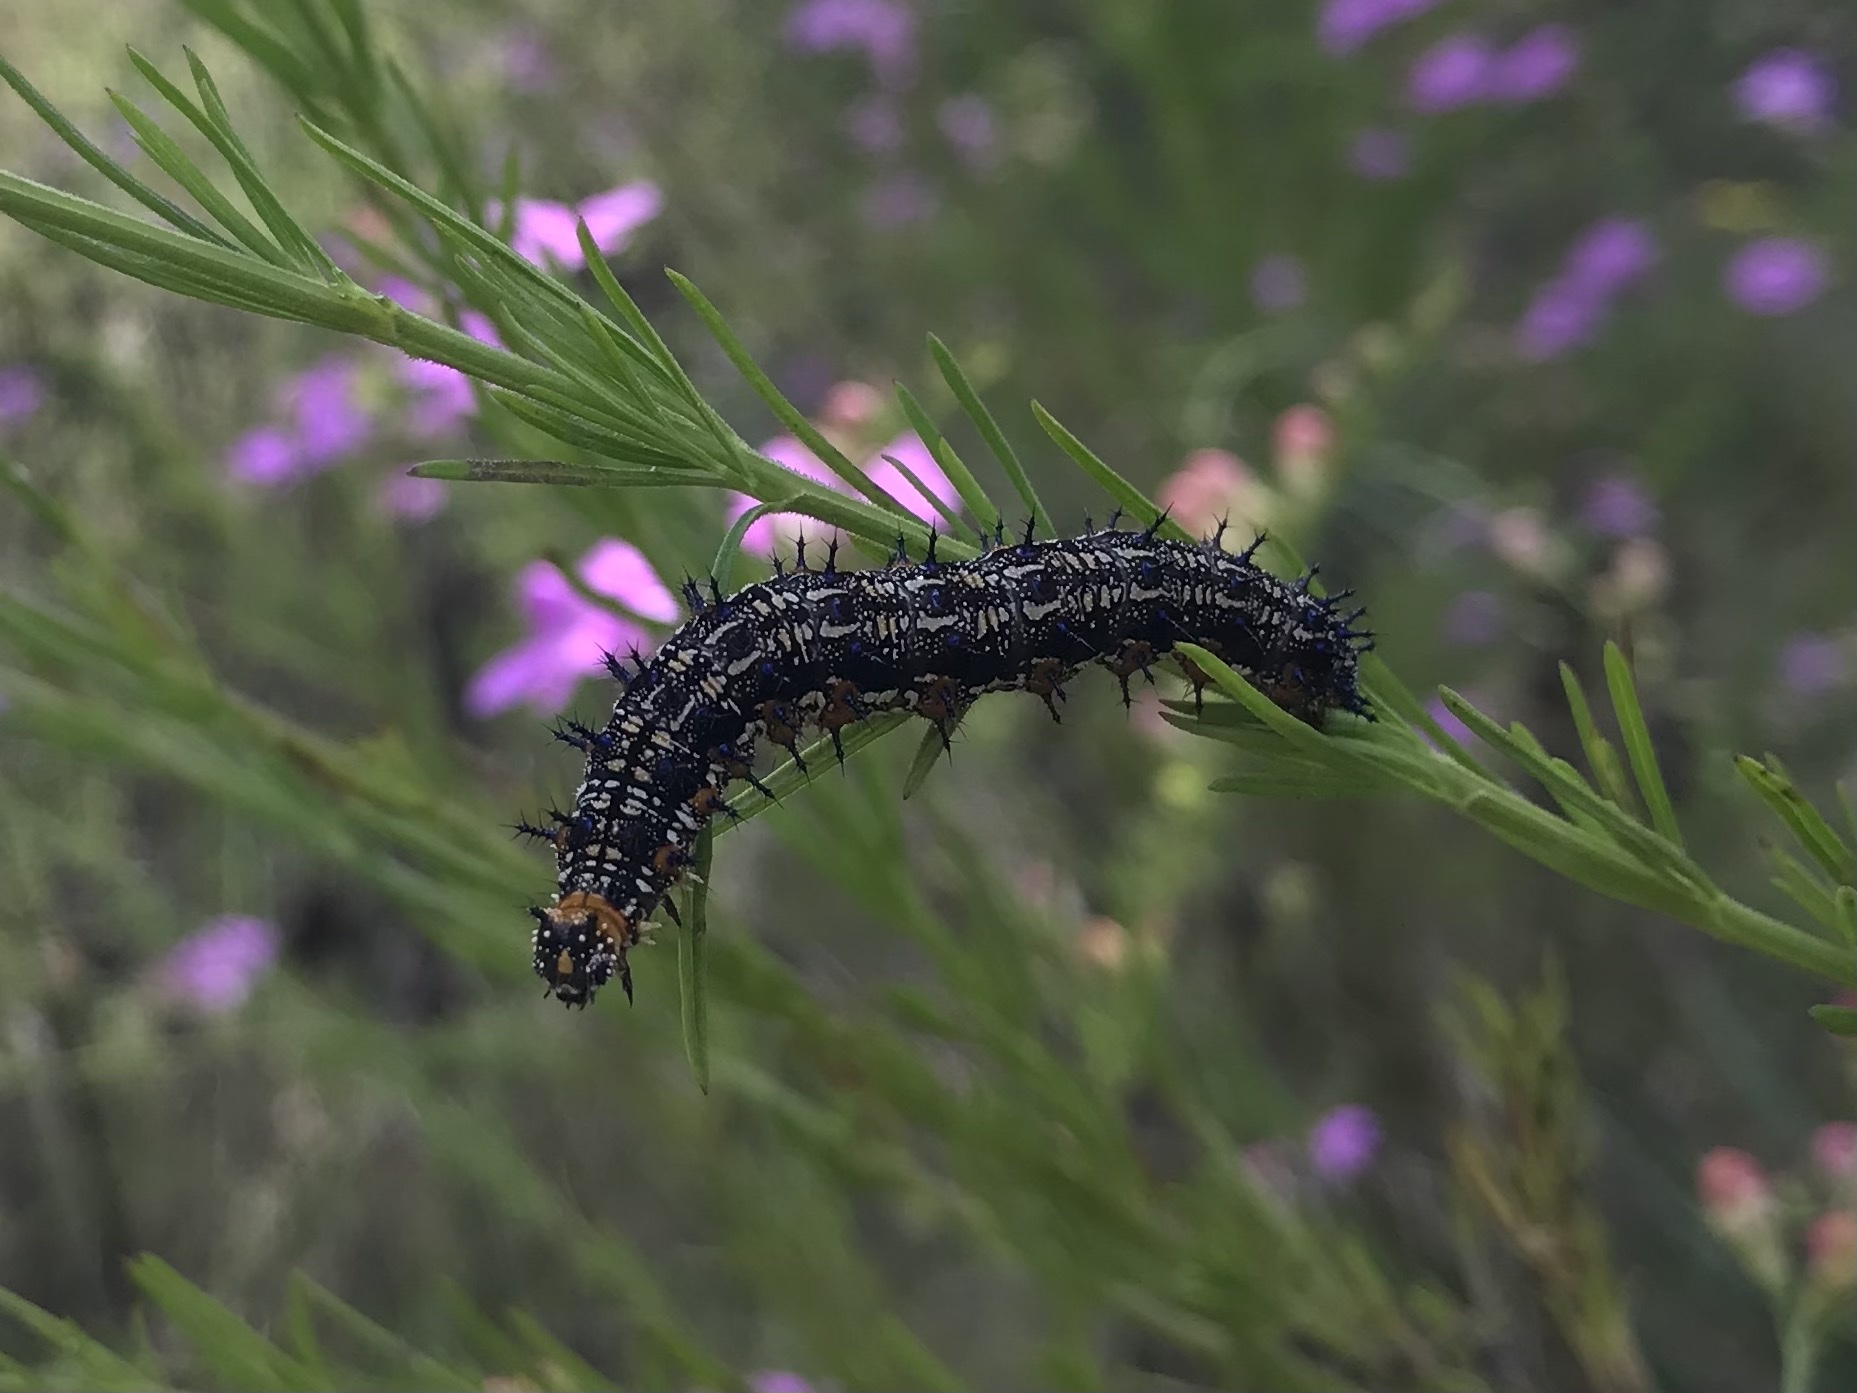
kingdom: Animalia
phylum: Arthropoda
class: Insecta
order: Lepidoptera
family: Nymphalidae
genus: Junonia
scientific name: Junonia coenia
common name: Common buckeye
